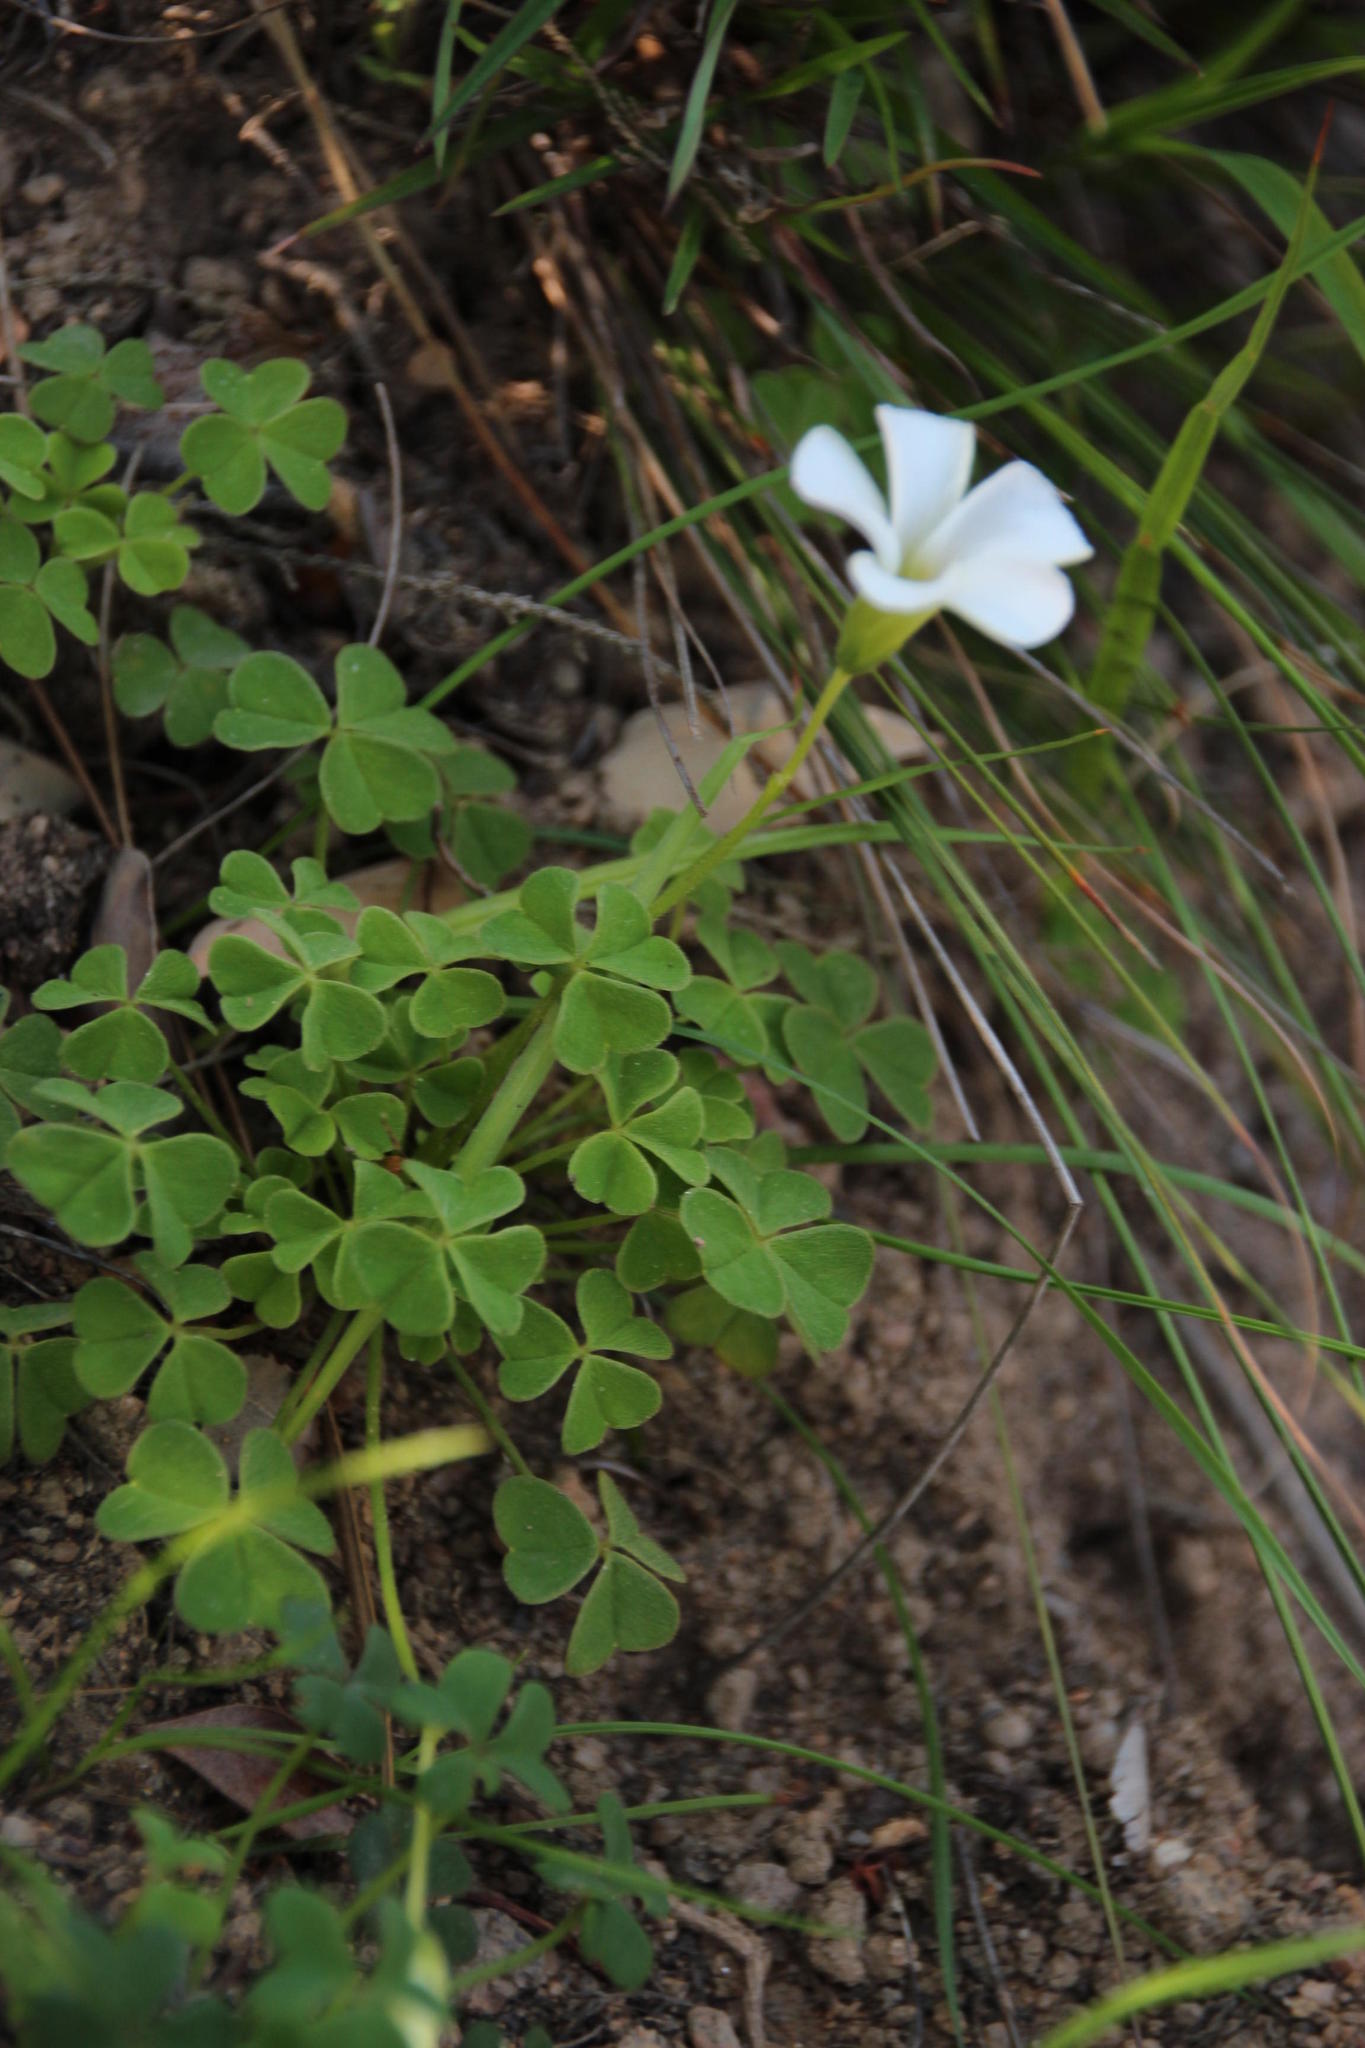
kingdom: Plantae
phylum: Tracheophyta
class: Magnoliopsida
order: Oxalidales
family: Oxalidaceae
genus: Oxalis
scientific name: Oxalis lanata
